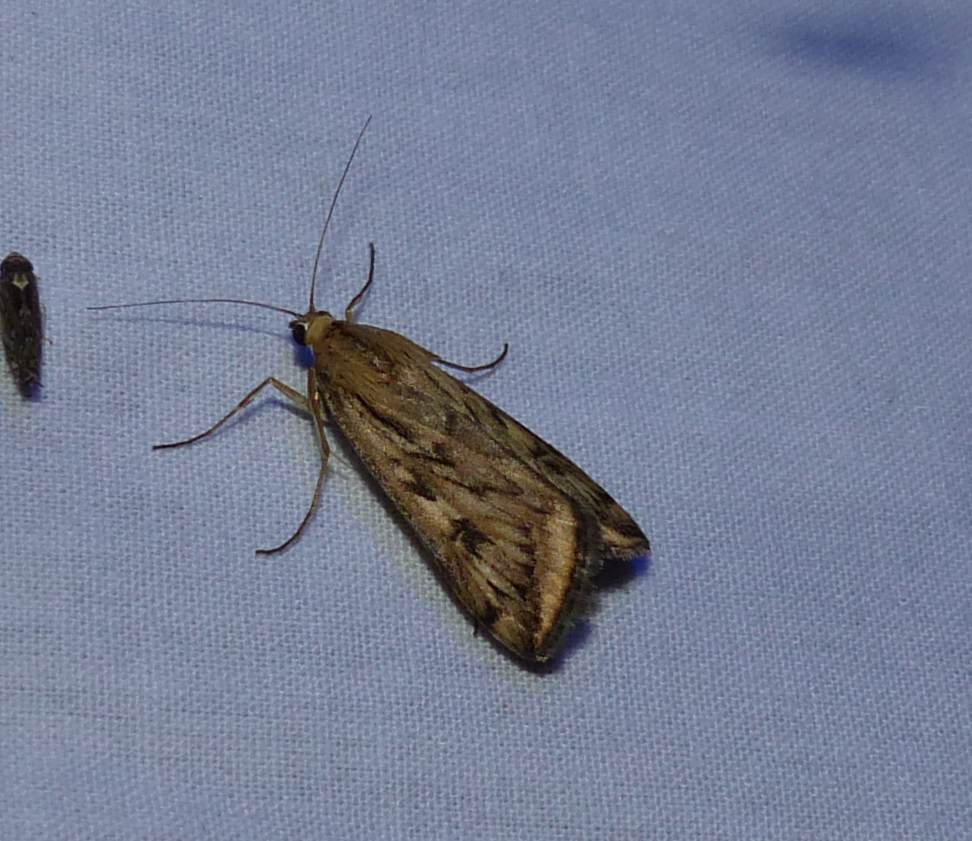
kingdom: Animalia
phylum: Arthropoda
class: Insecta
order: Lepidoptera
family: Crambidae
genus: Loxostege
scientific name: Loxostege cereralis
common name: Alfalfa webworm moth
